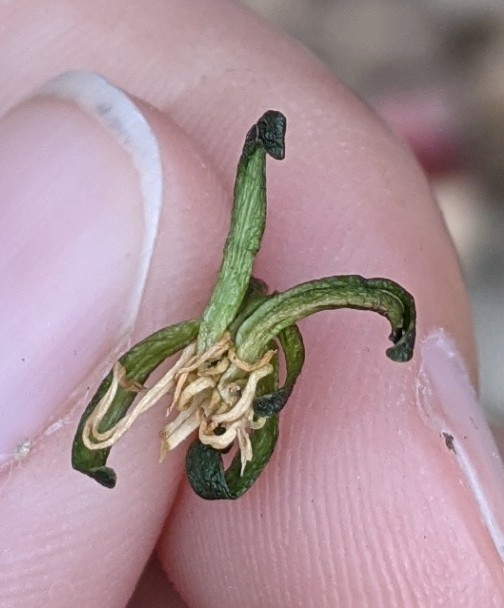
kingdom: Plantae
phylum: Tracheophyta
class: Magnoliopsida
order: Asterales
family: Campanulaceae
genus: Lobelia
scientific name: Lobelia dortmanna
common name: Water lobelia
